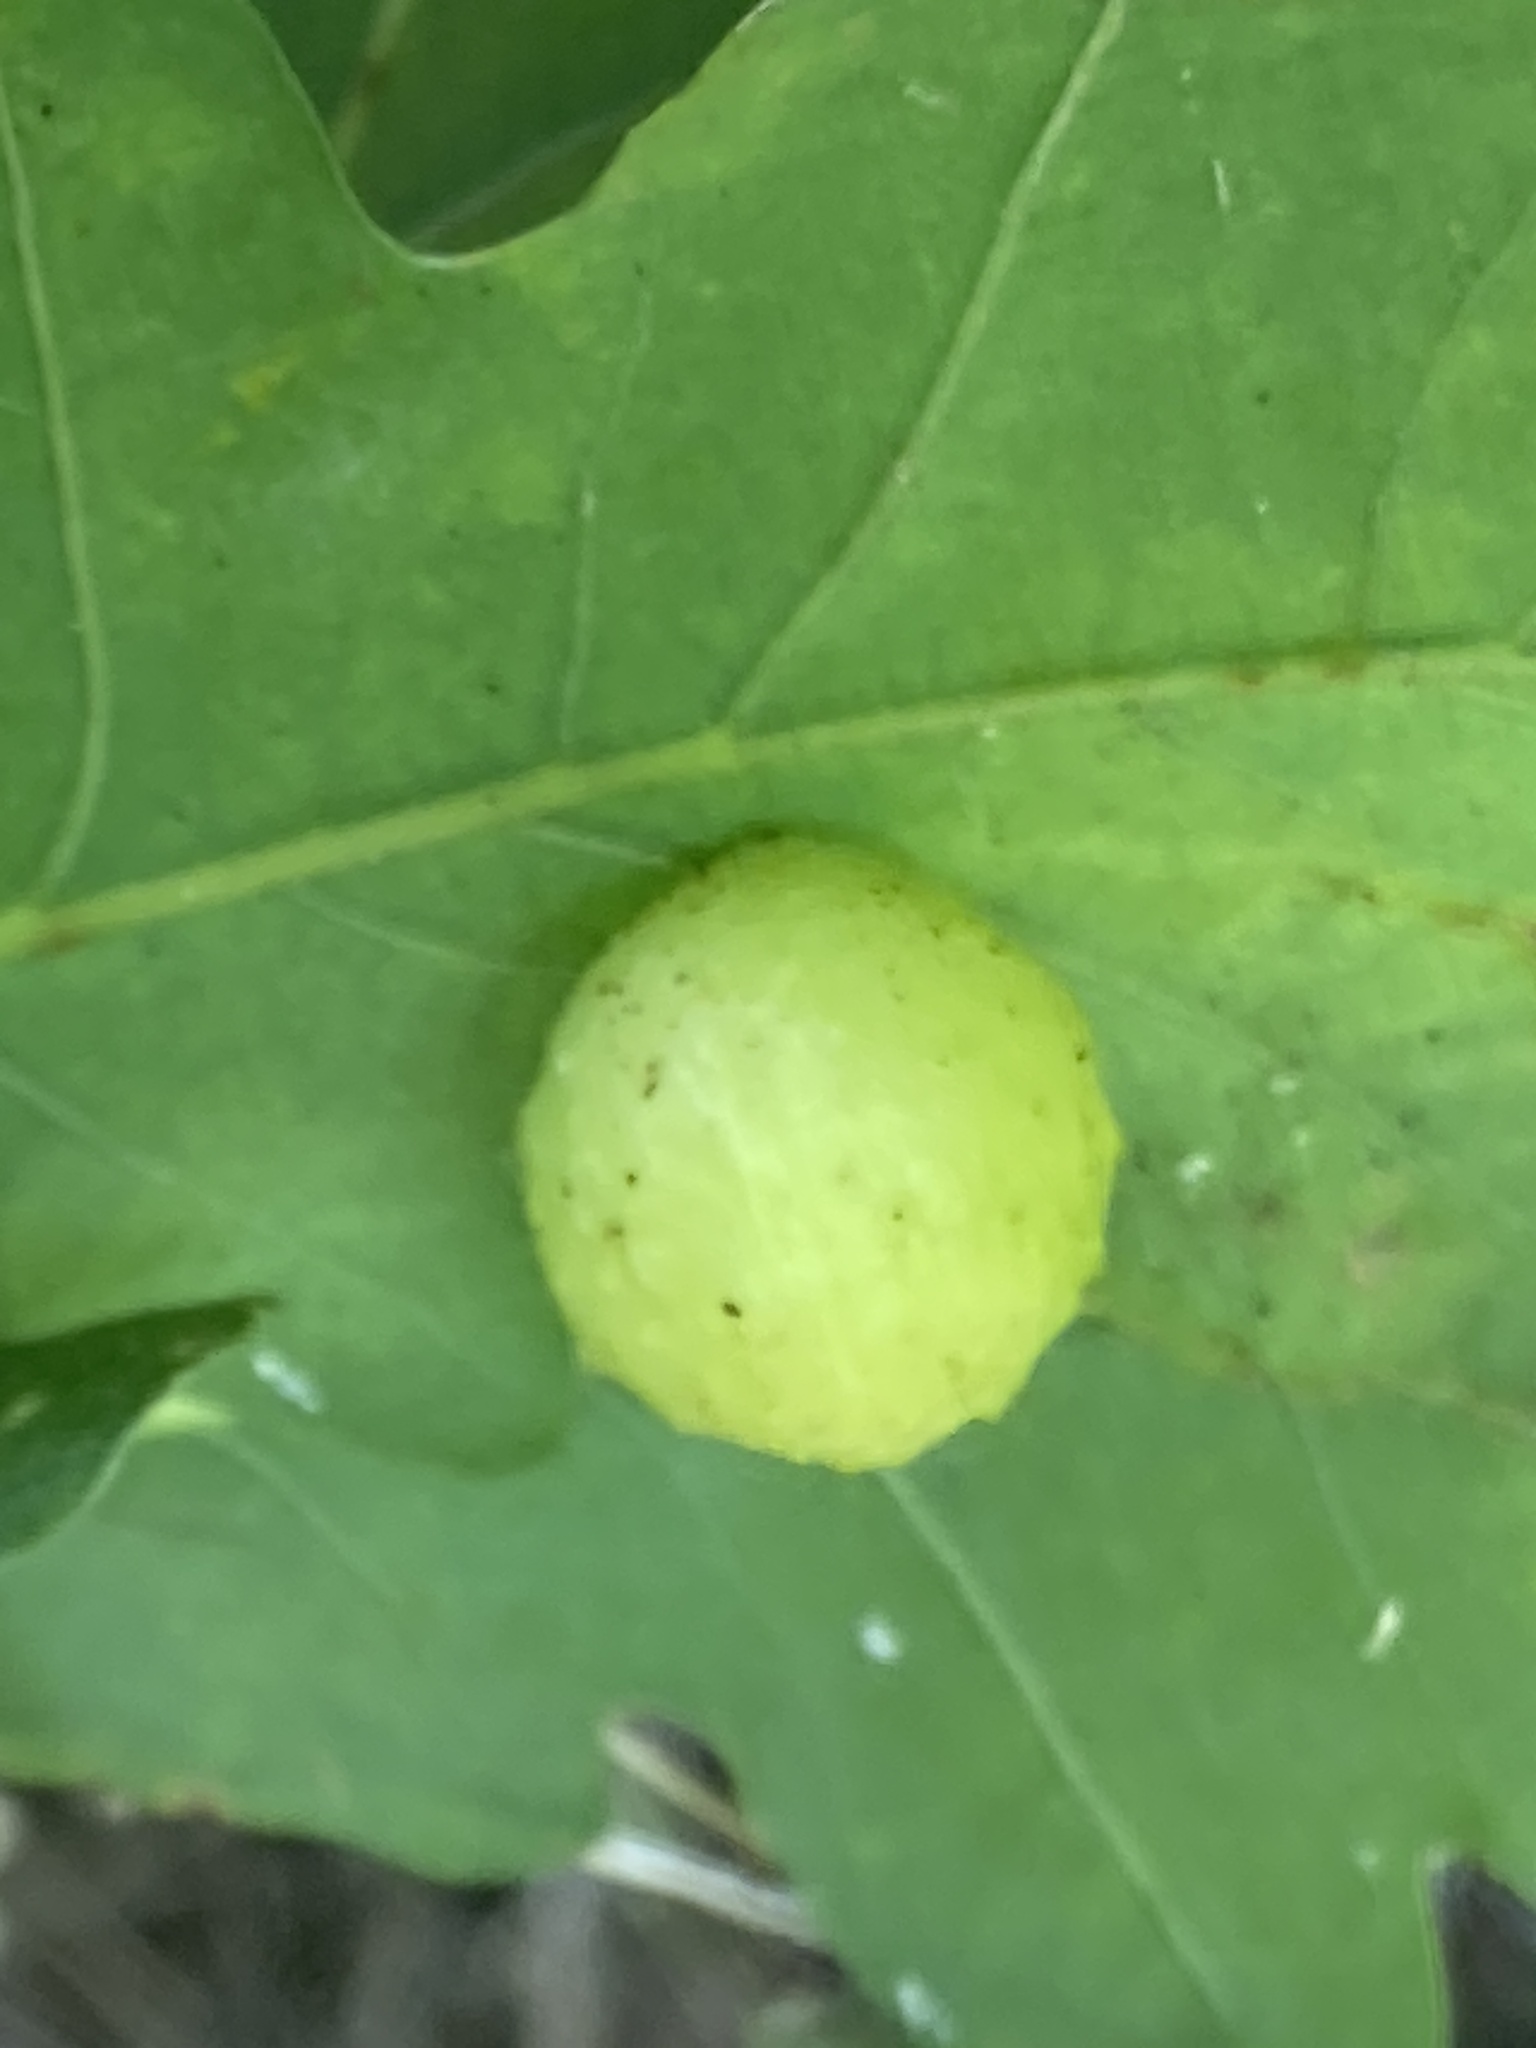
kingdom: Animalia
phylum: Arthropoda
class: Insecta
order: Hymenoptera
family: Cynipidae
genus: Cynips
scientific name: Cynips quercusfolii
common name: Cherry gall
